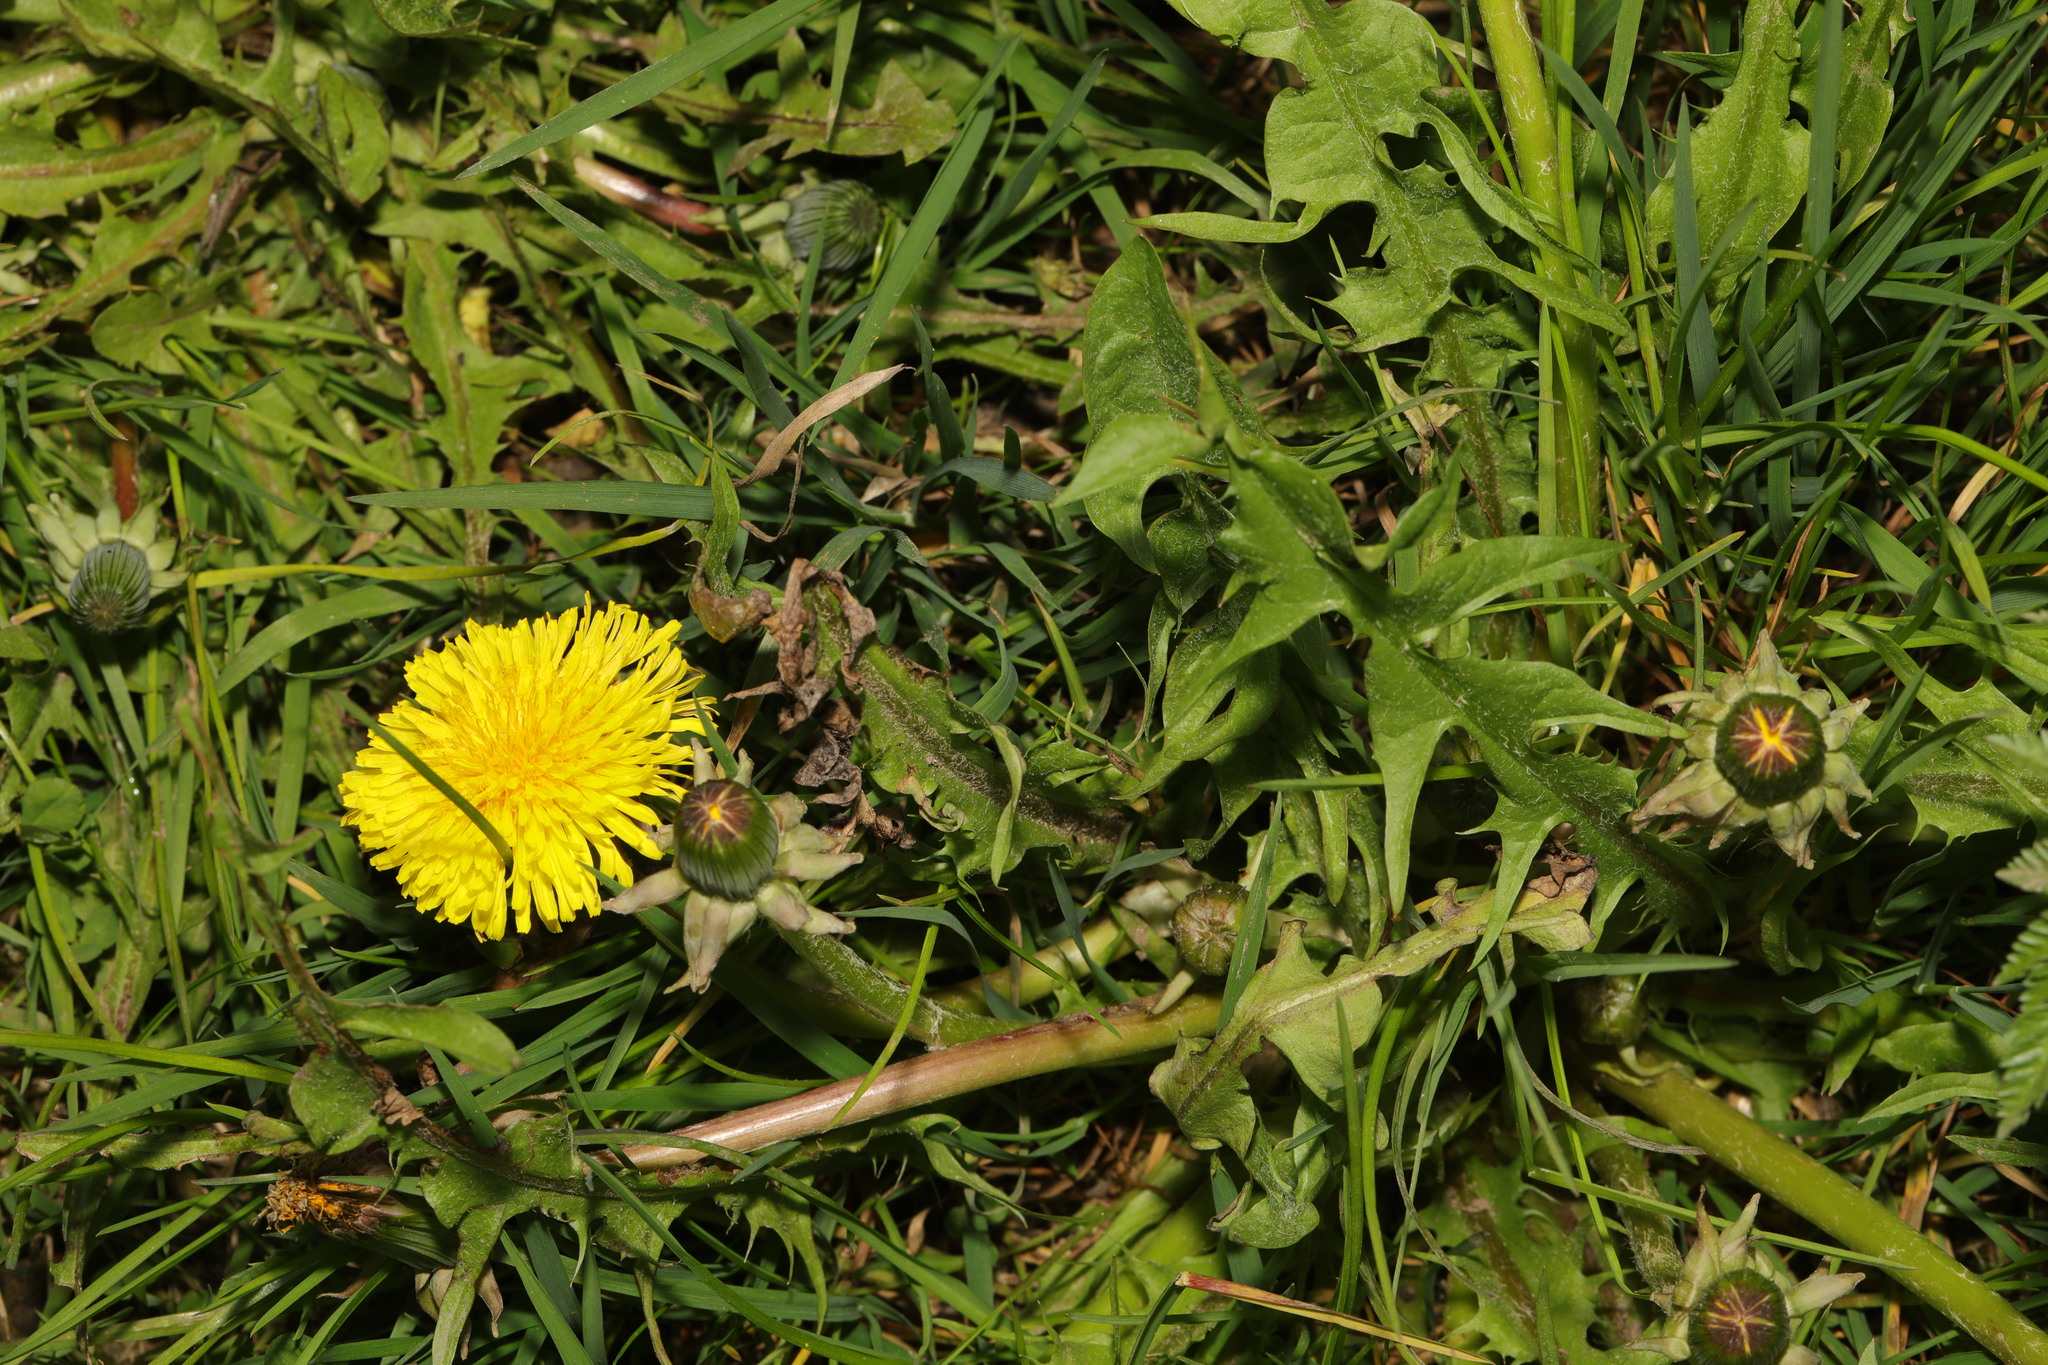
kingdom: Plantae
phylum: Tracheophyta
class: Magnoliopsida
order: Asterales
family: Asteraceae
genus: Taraxacum
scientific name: Taraxacum officinale
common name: Common dandelion
